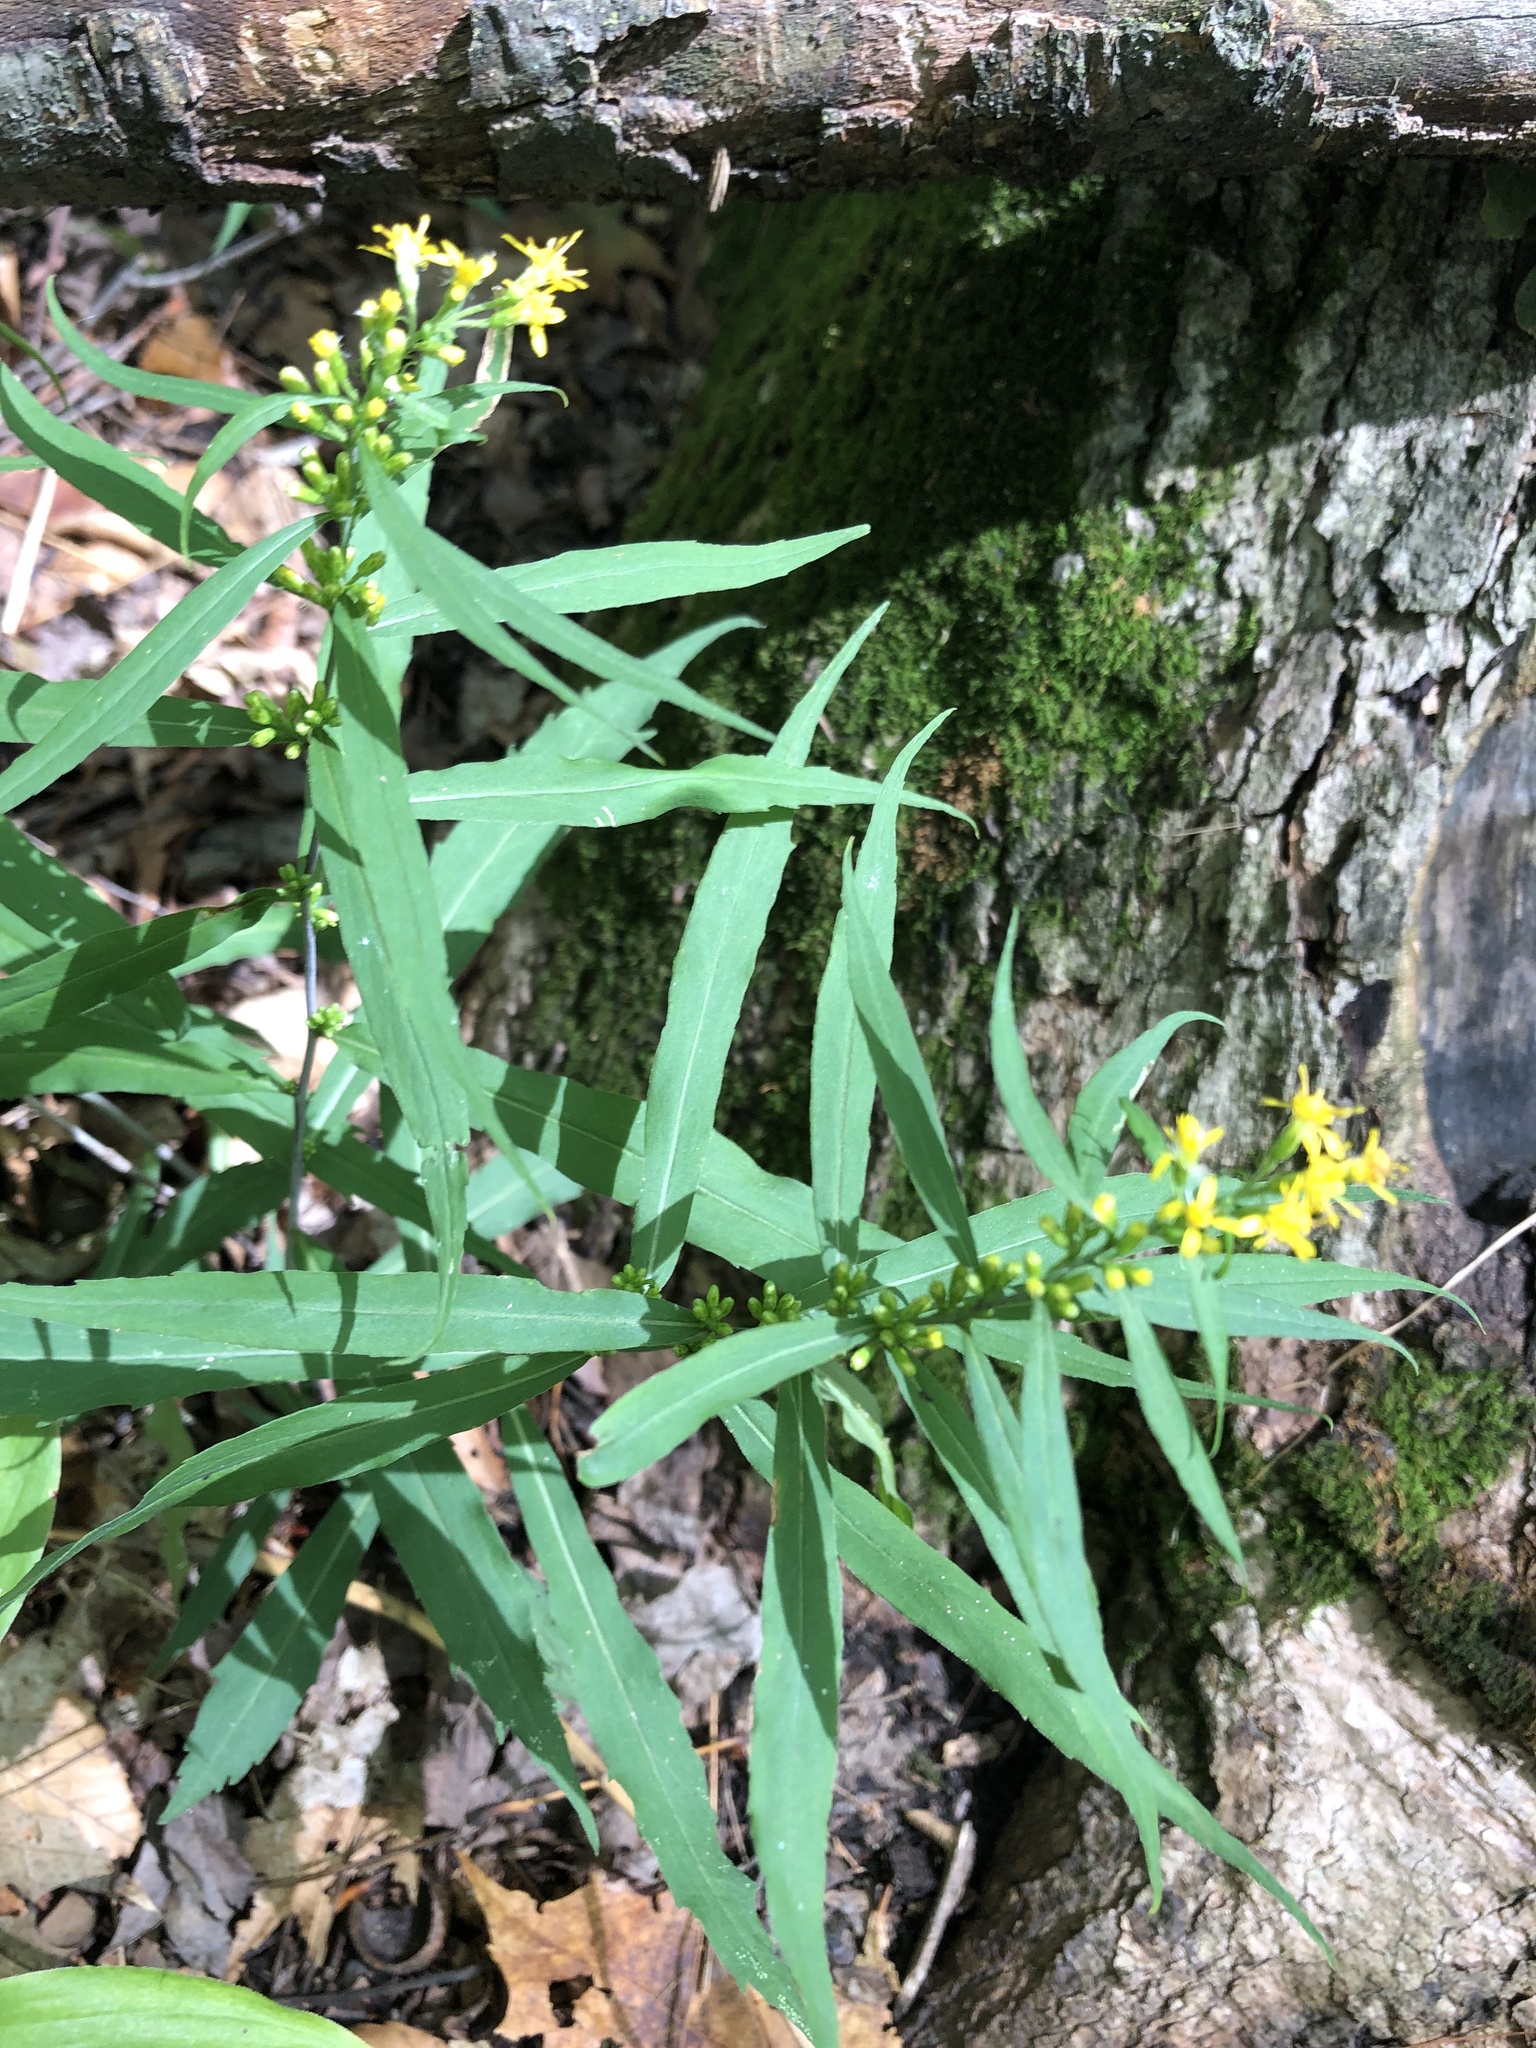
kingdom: Plantae
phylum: Tracheophyta
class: Magnoliopsida
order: Asterales
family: Asteraceae
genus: Solidago
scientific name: Solidago caesia
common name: Woodland goldenrod
